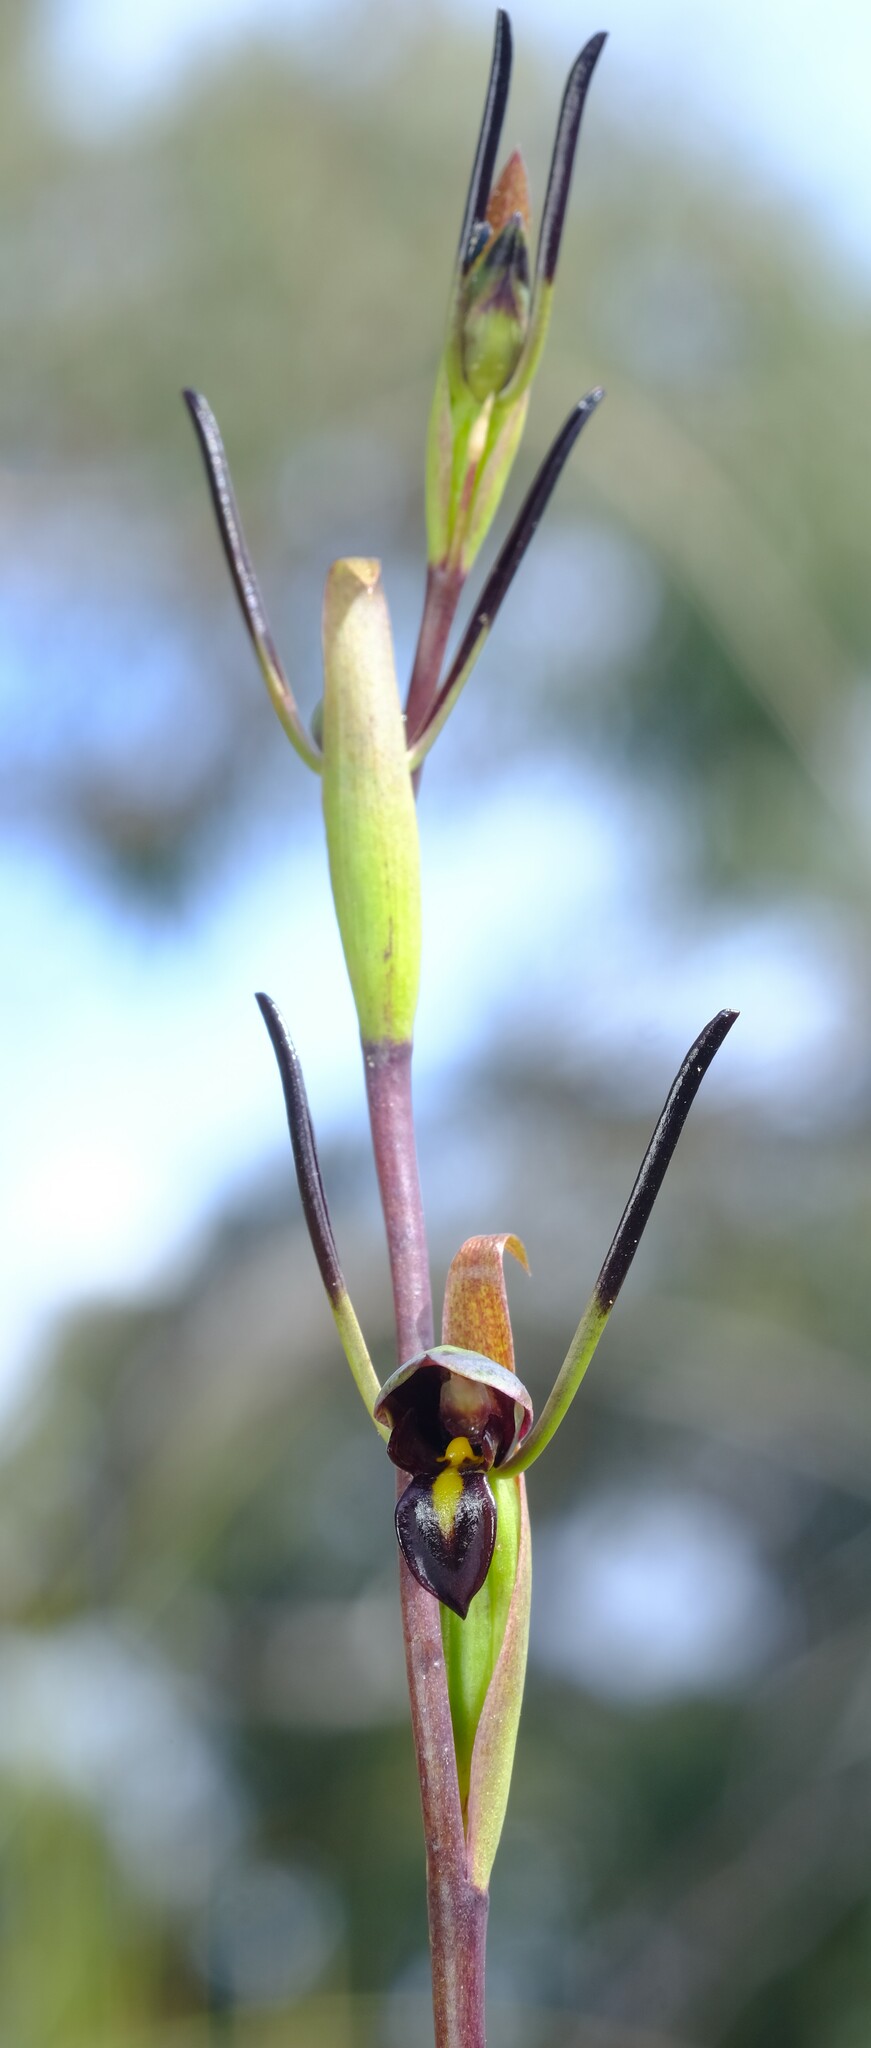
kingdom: Plantae
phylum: Tracheophyta
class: Liliopsida
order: Asparagales
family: Orchidaceae
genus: Orthoceras
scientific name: Orthoceras strictum
